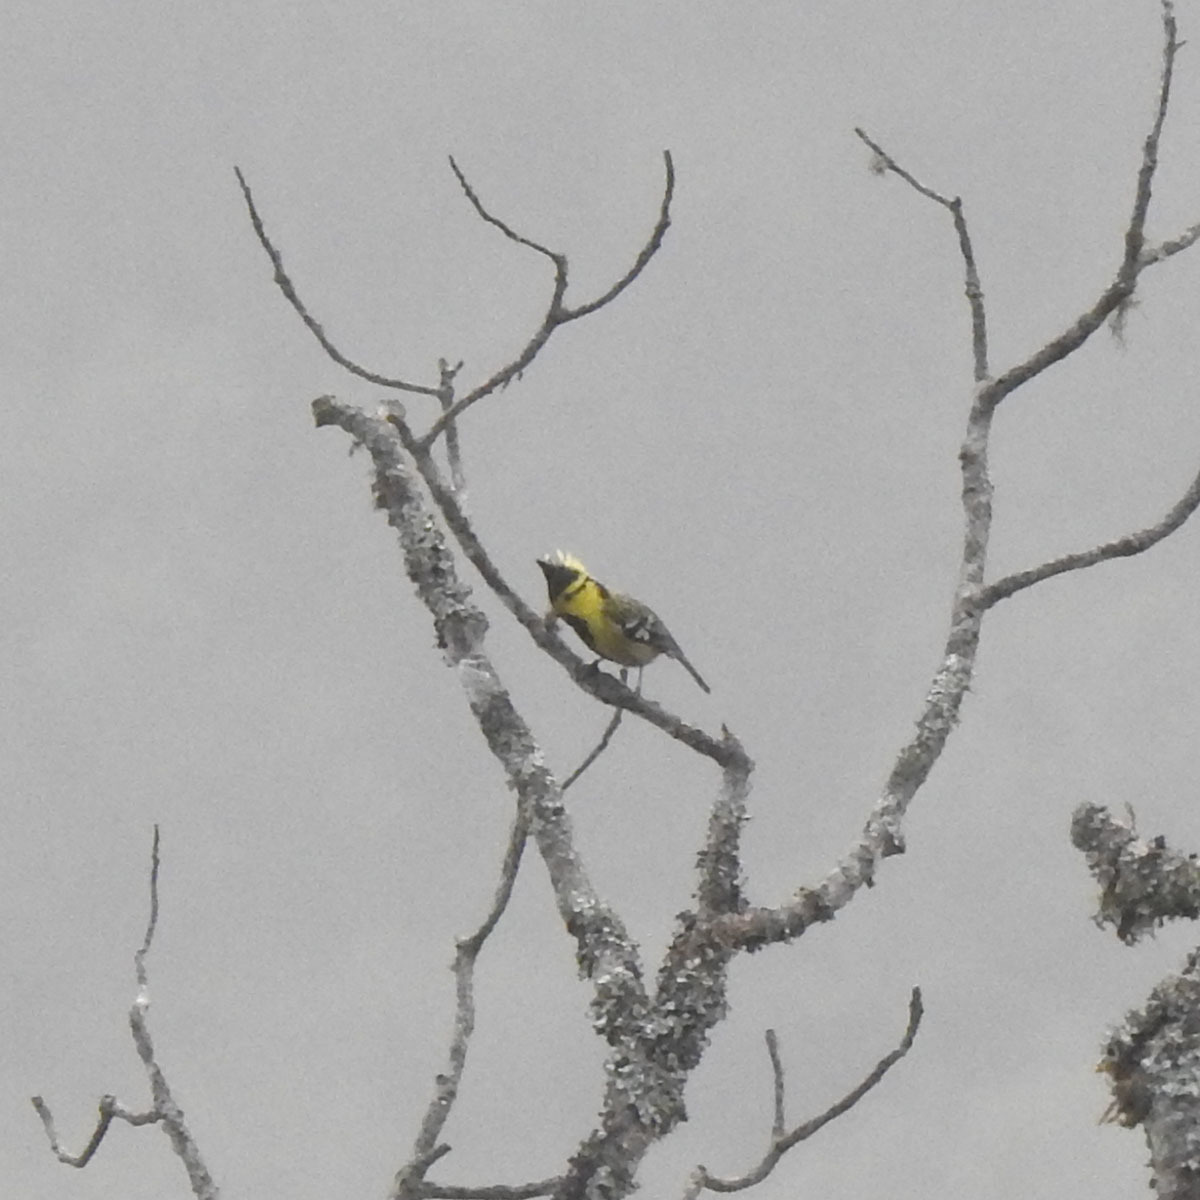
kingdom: Animalia
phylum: Chordata
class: Aves
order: Passeriformes
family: Paridae
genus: Parus
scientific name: Parus spilonotus
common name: Yellow-cheeked tit
